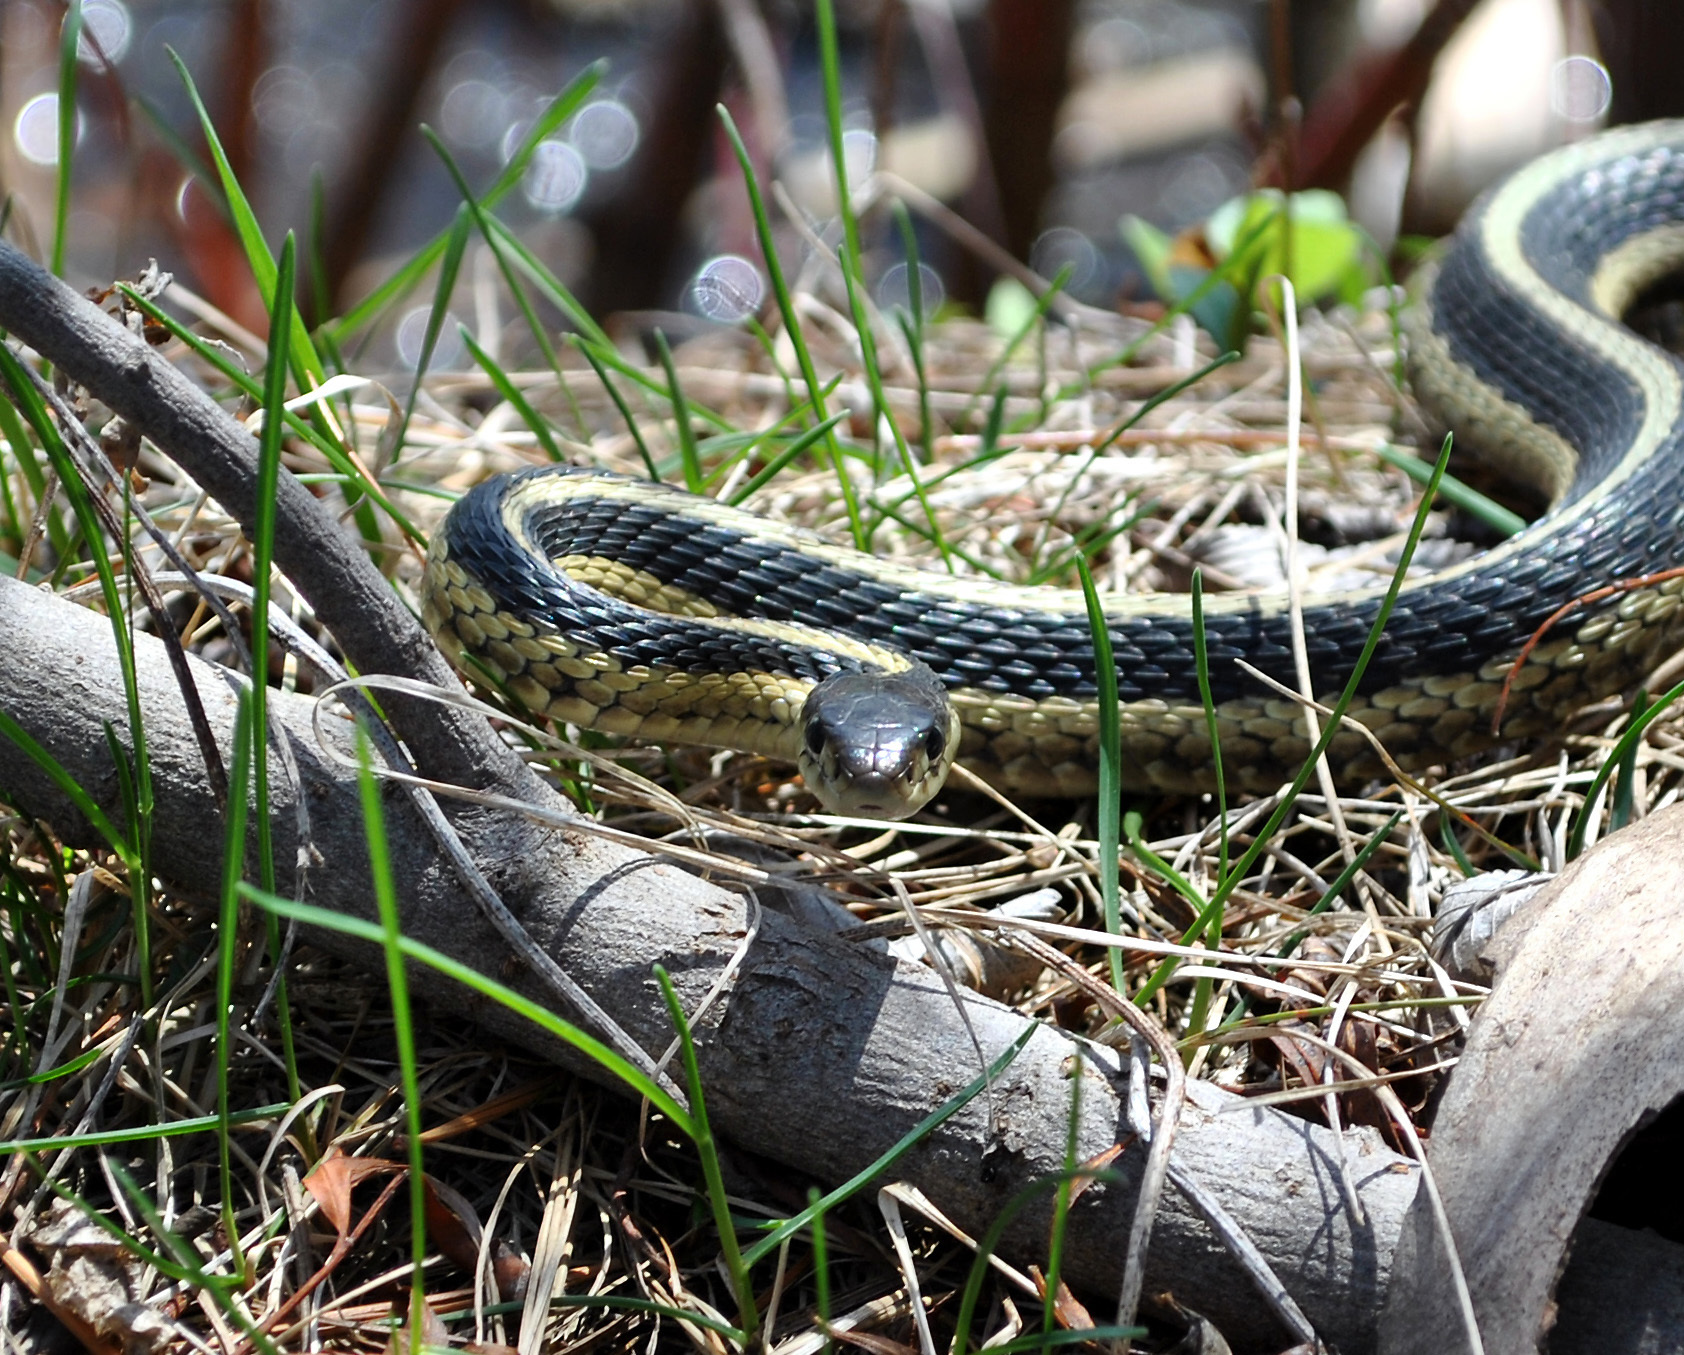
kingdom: Animalia
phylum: Chordata
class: Squamata
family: Colubridae
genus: Thamnophis
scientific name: Thamnophis sirtalis
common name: Common garter snake
